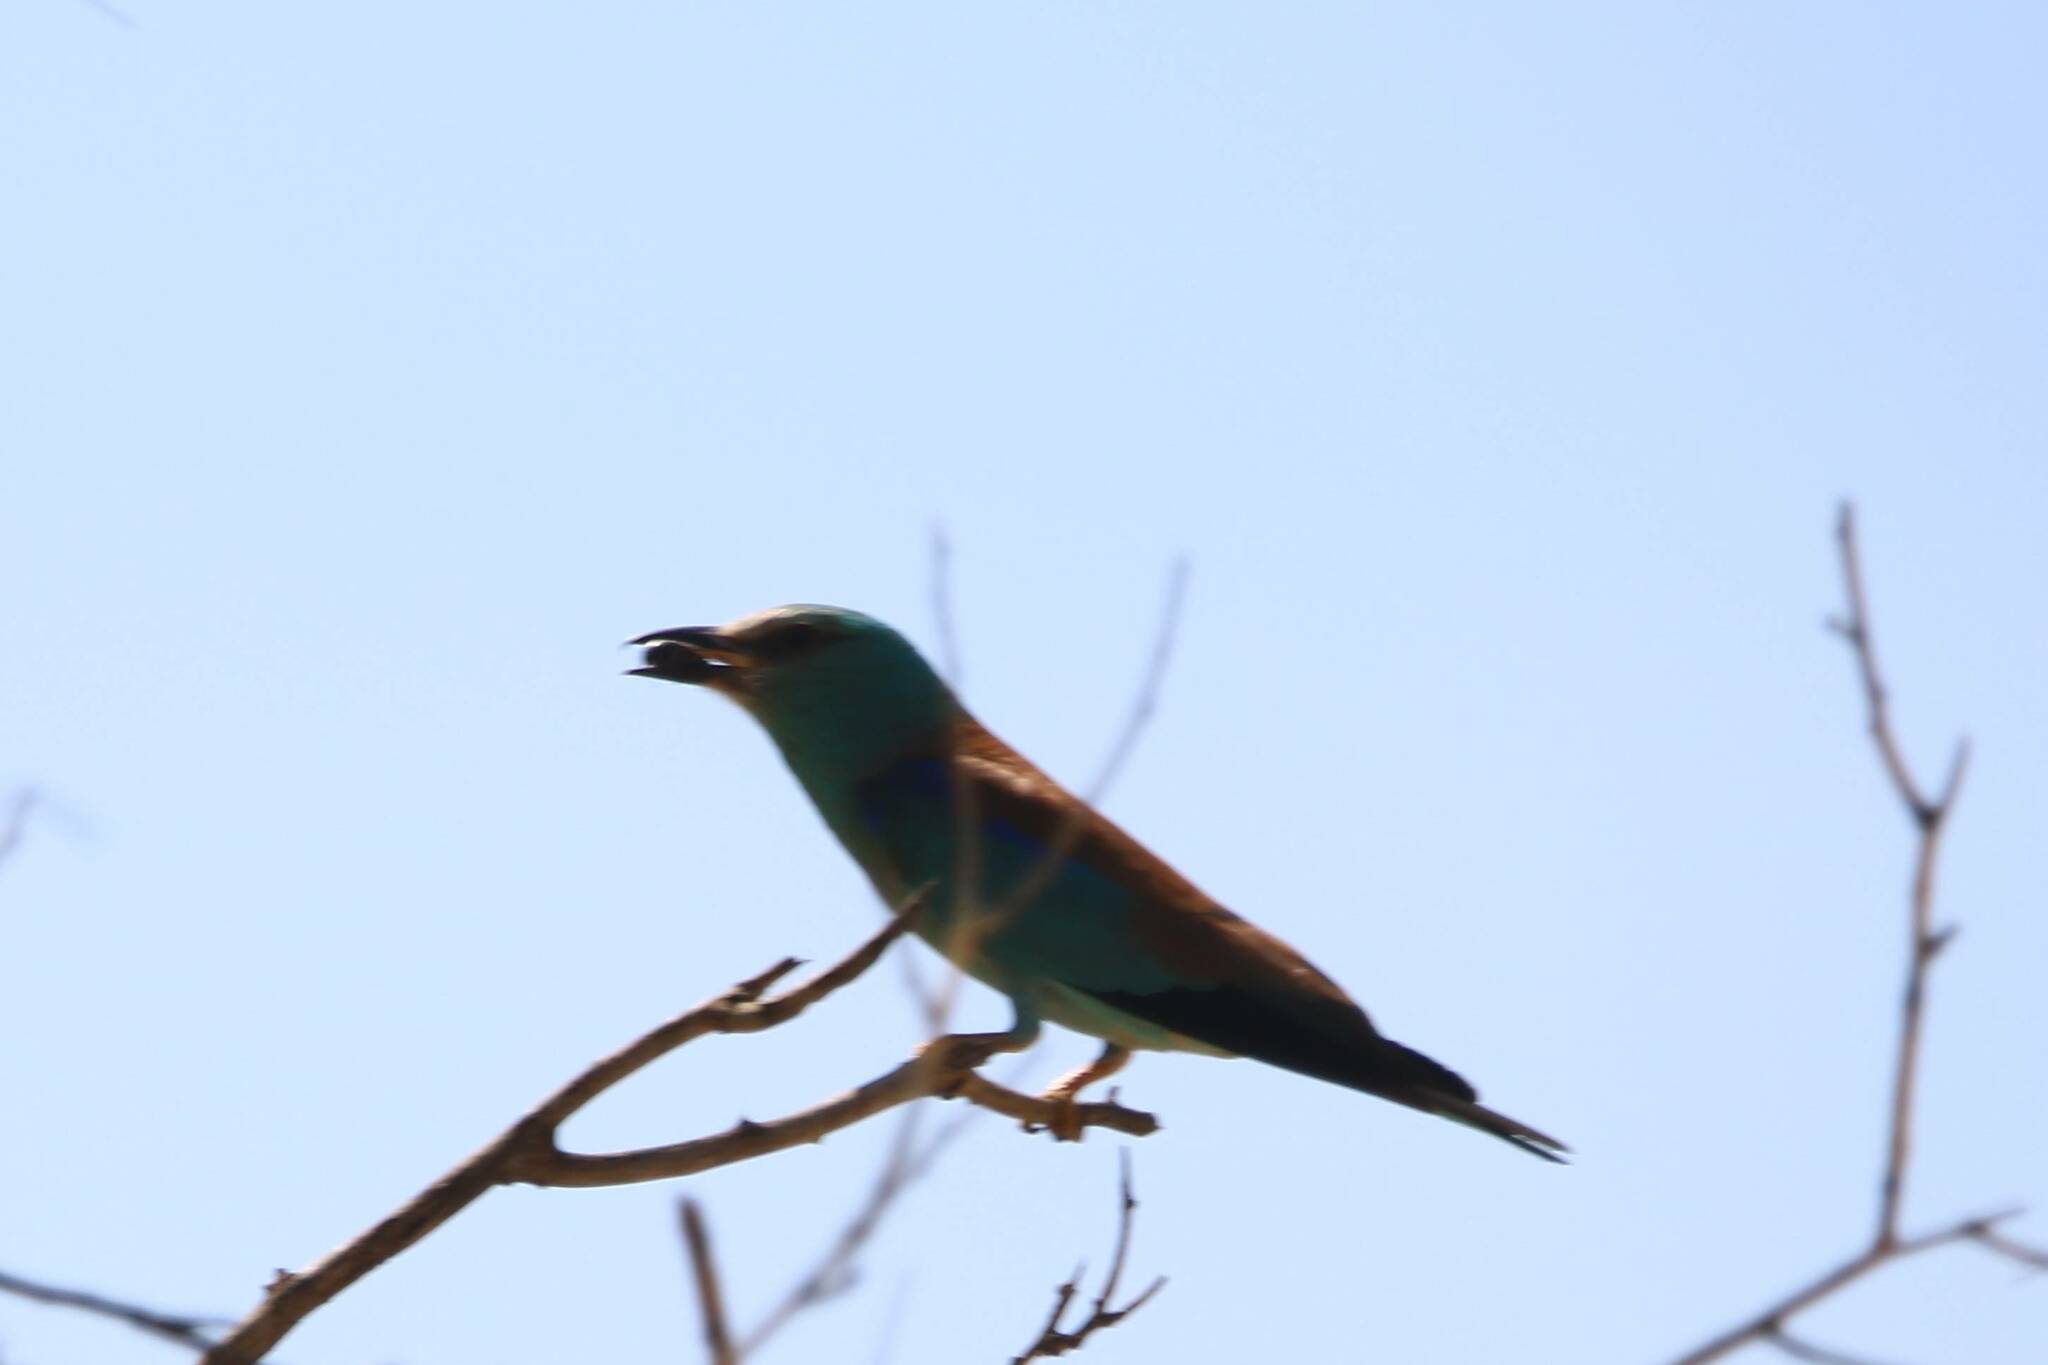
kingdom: Animalia
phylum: Chordata
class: Aves
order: Coraciiformes
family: Coraciidae
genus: Coracias
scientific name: Coracias garrulus
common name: European roller
